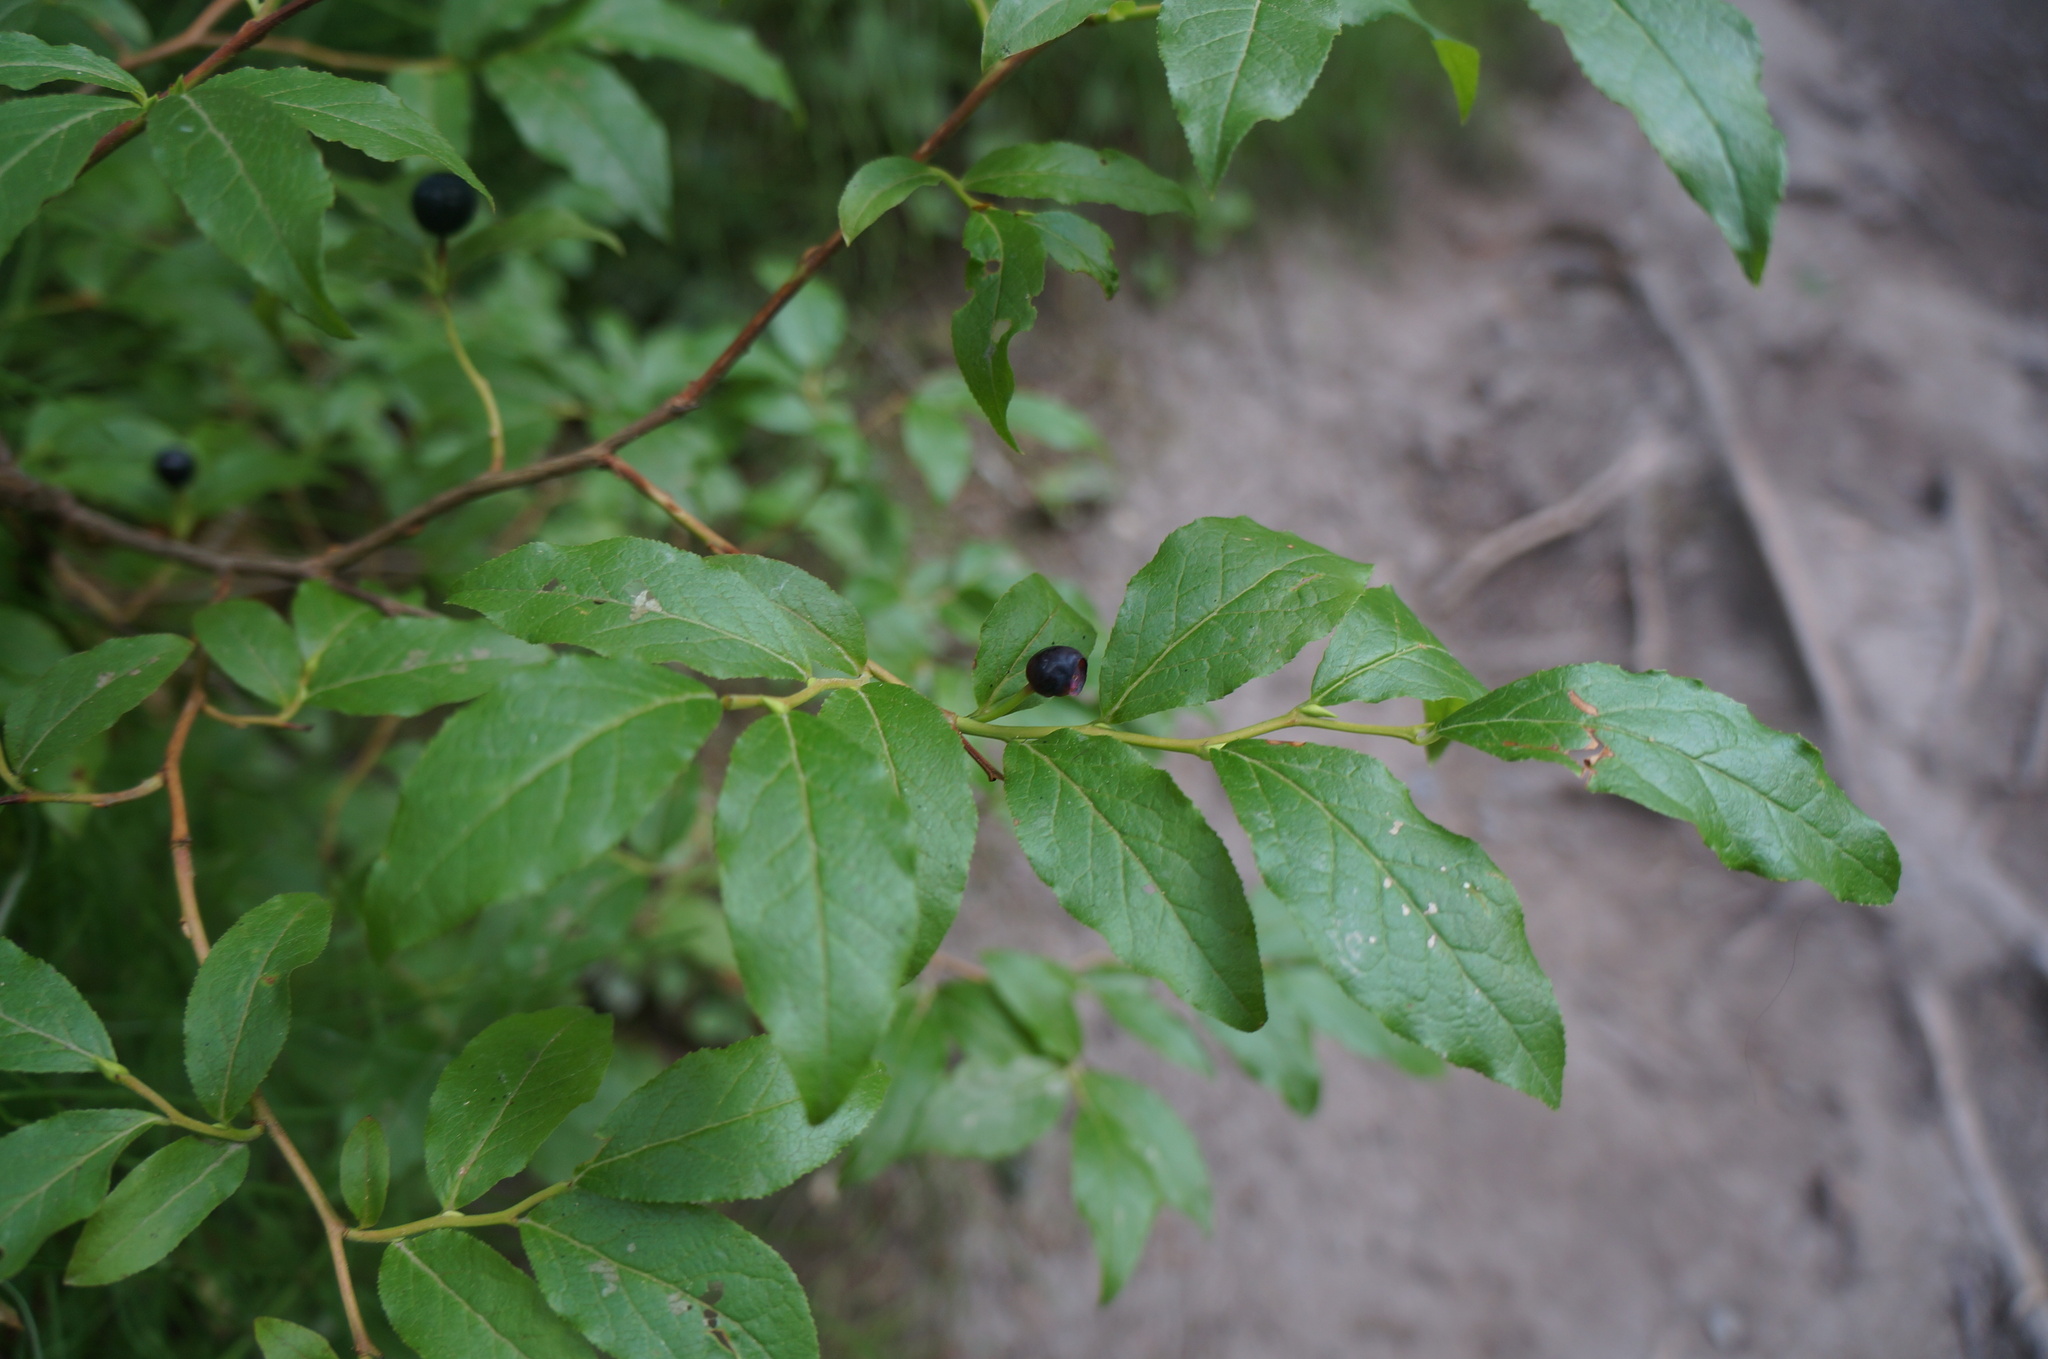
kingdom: Plantae
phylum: Tracheophyta
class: Magnoliopsida
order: Ericales
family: Ericaceae
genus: Vaccinium
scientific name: Vaccinium membranaceum
